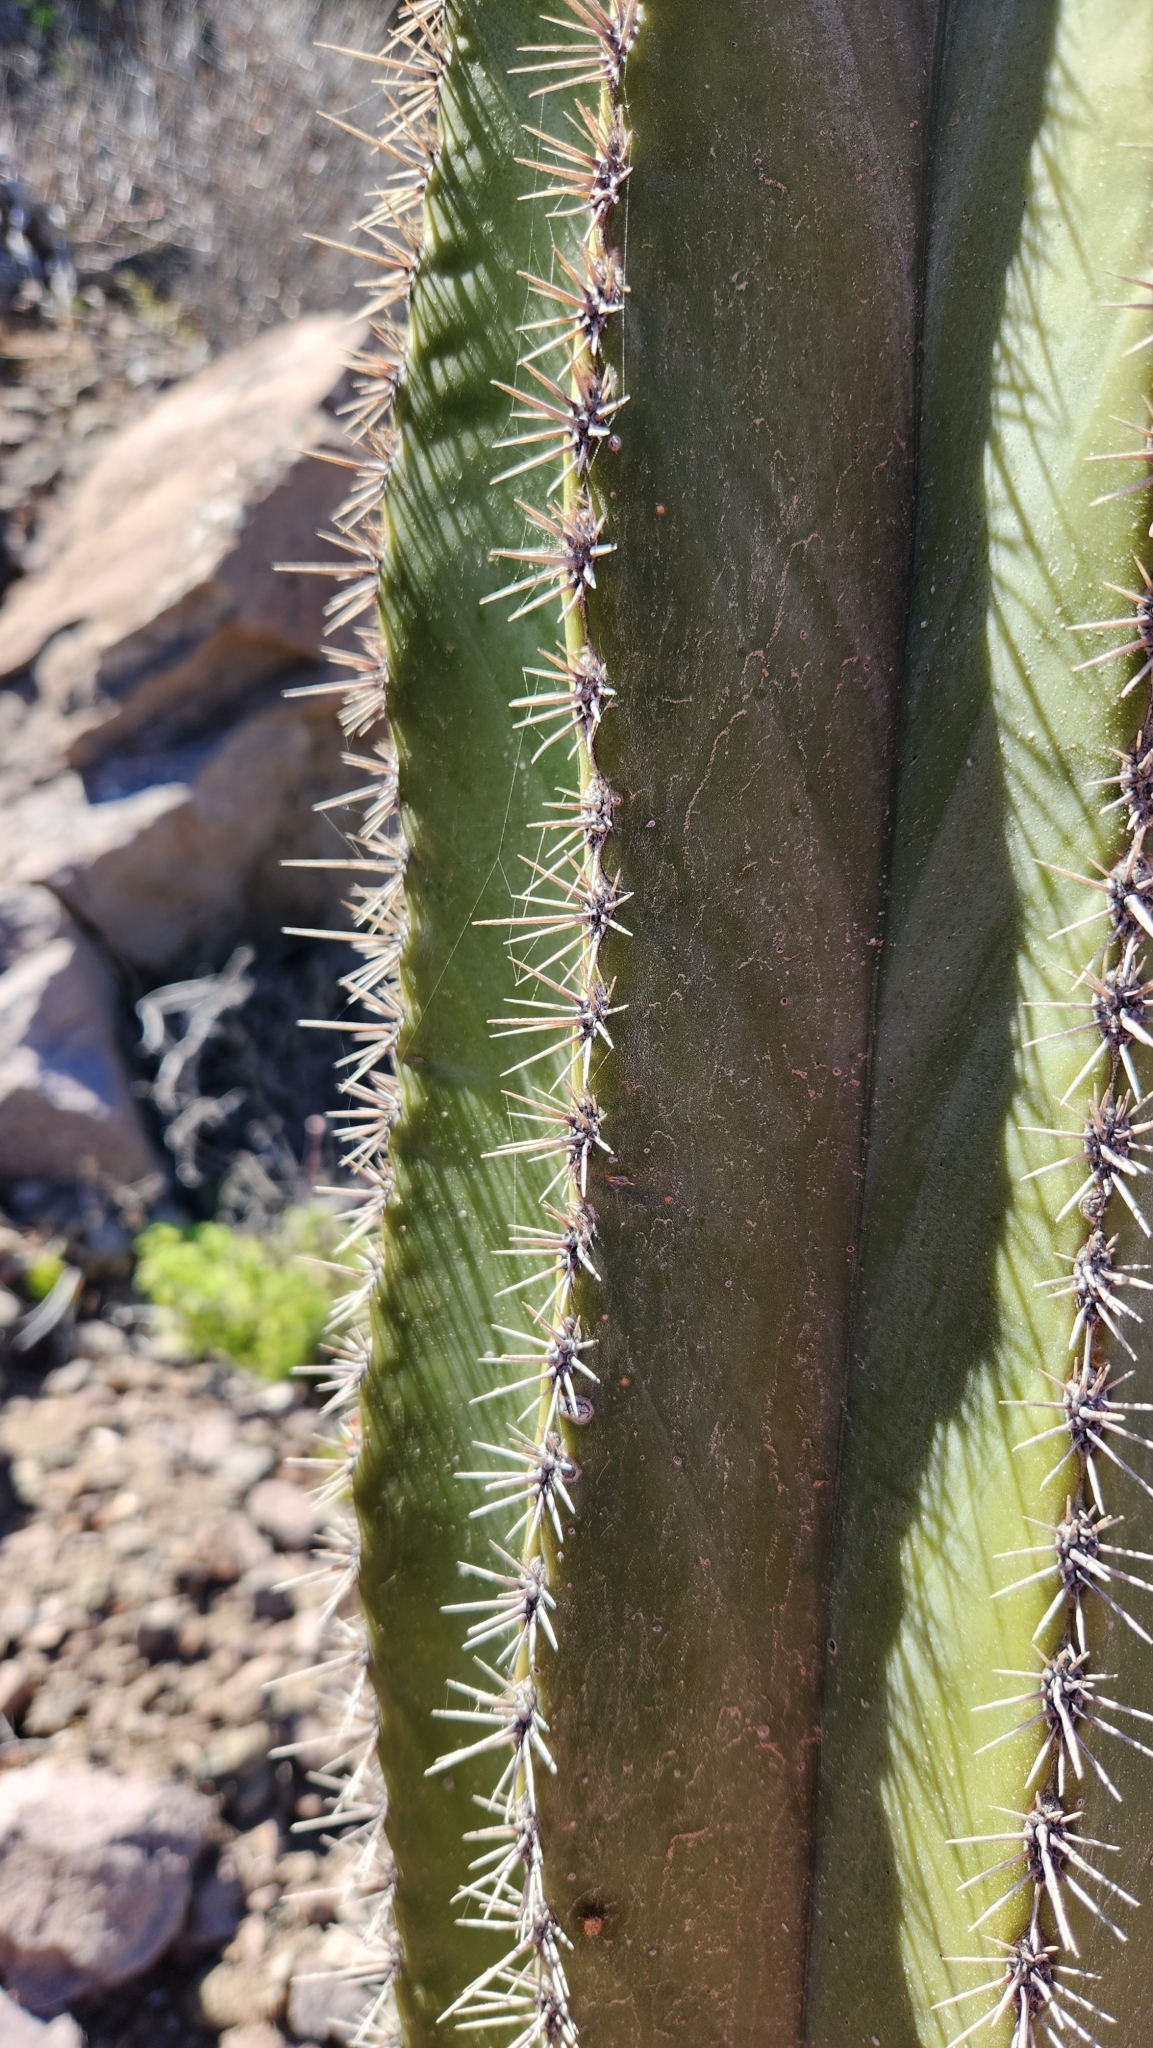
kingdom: Plantae
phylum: Tracheophyta
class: Magnoliopsida
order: Caryophyllales
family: Cactaceae
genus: Pachycereus
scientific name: Pachycereus pringlei
